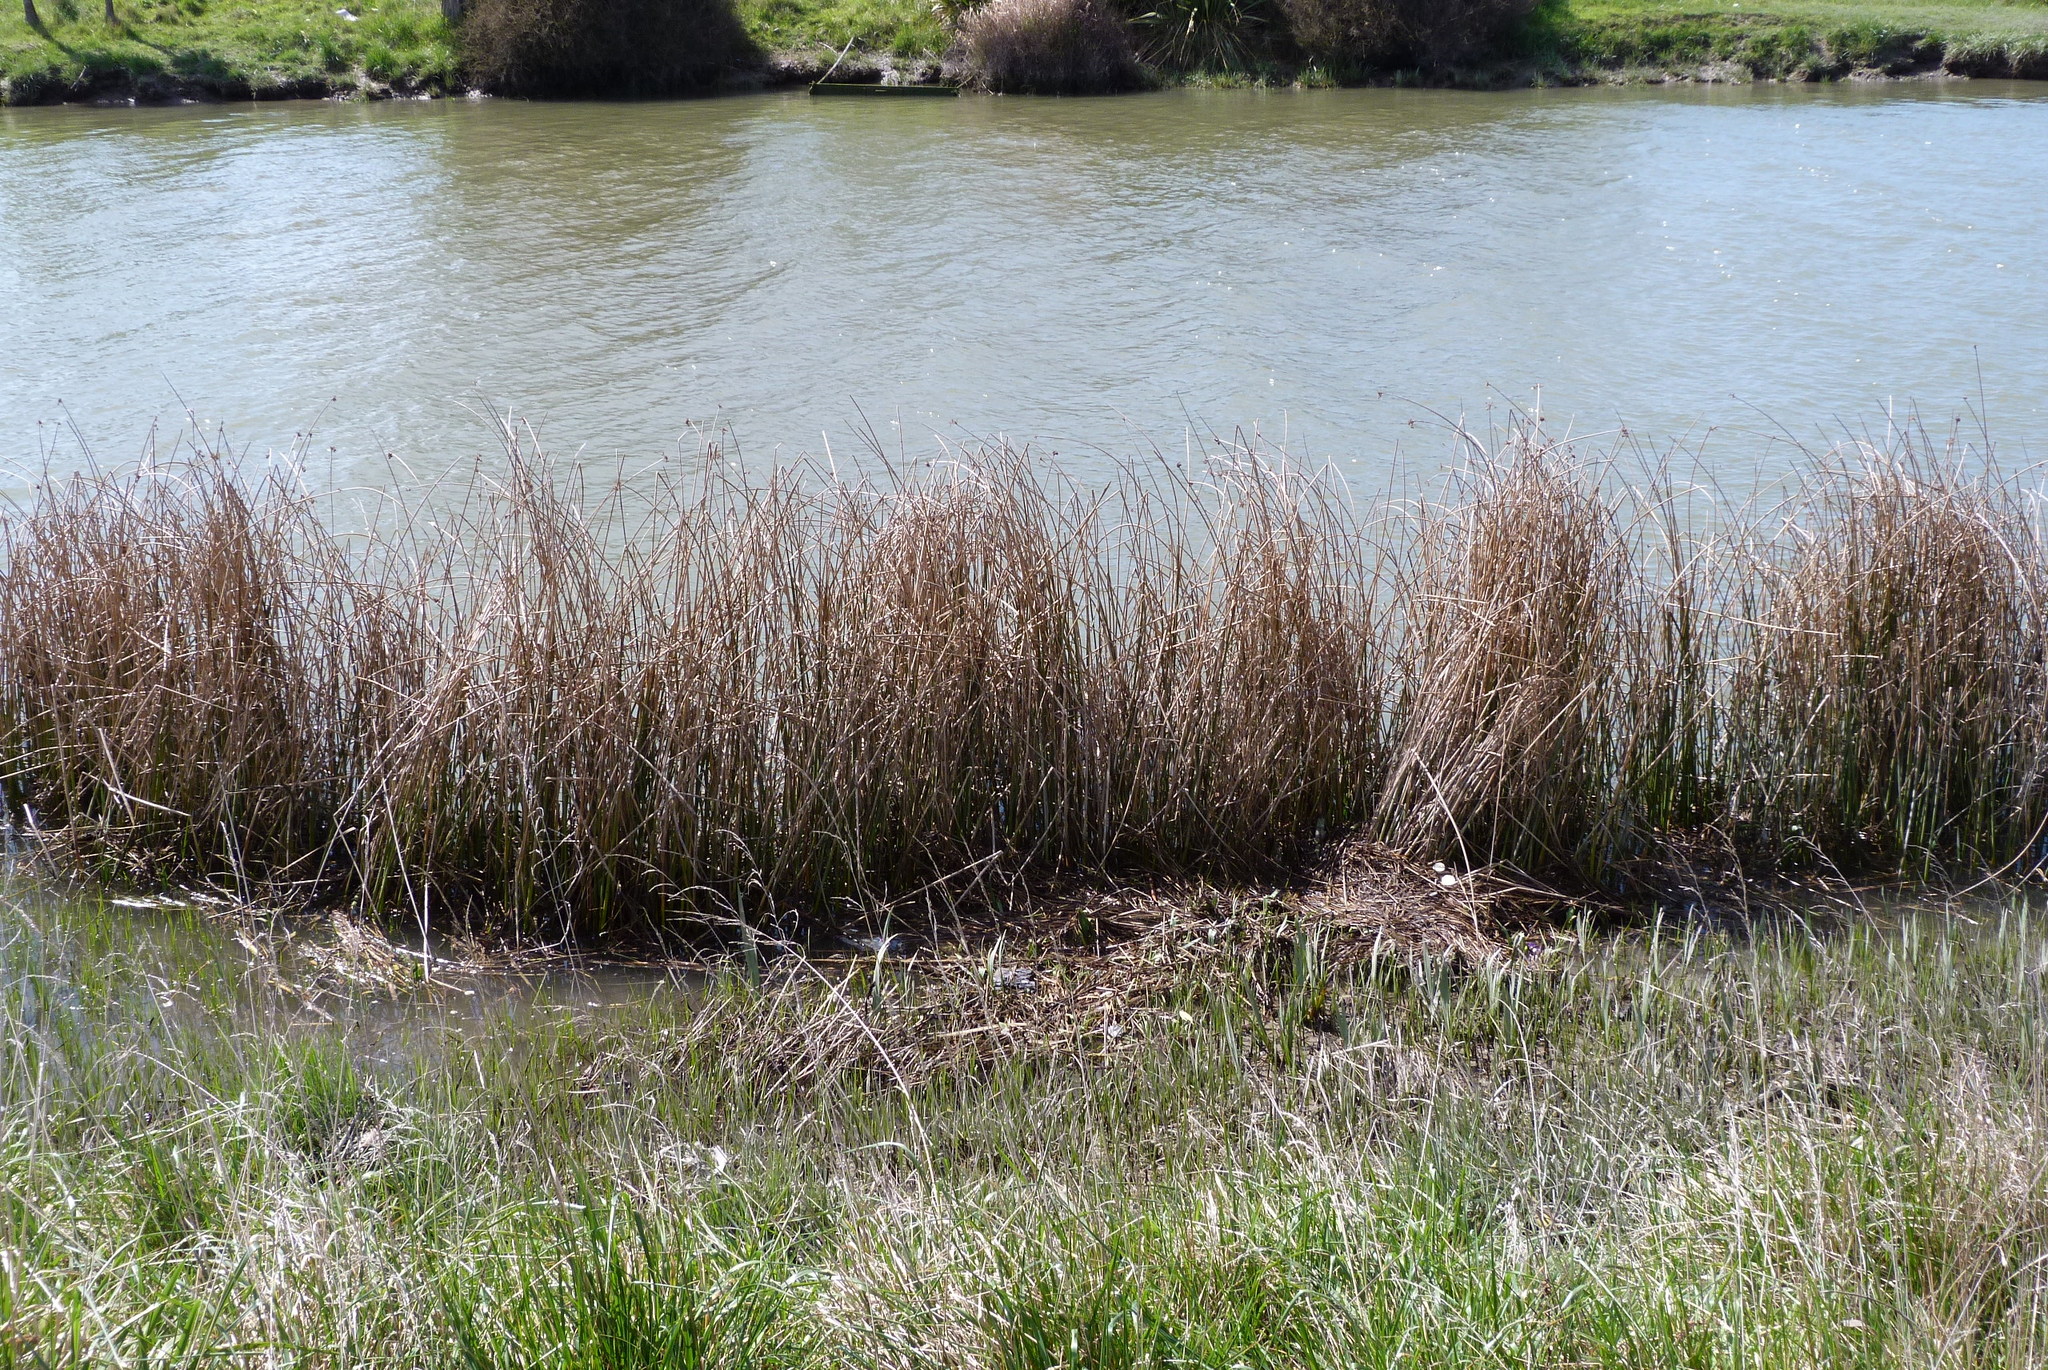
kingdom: Plantae
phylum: Tracheophyta
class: Liliopsida
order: Poales
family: Cyperaceae
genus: Schoenoplectus
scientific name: Schoenoplectus tabernaemontani
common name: Grey club-rush
